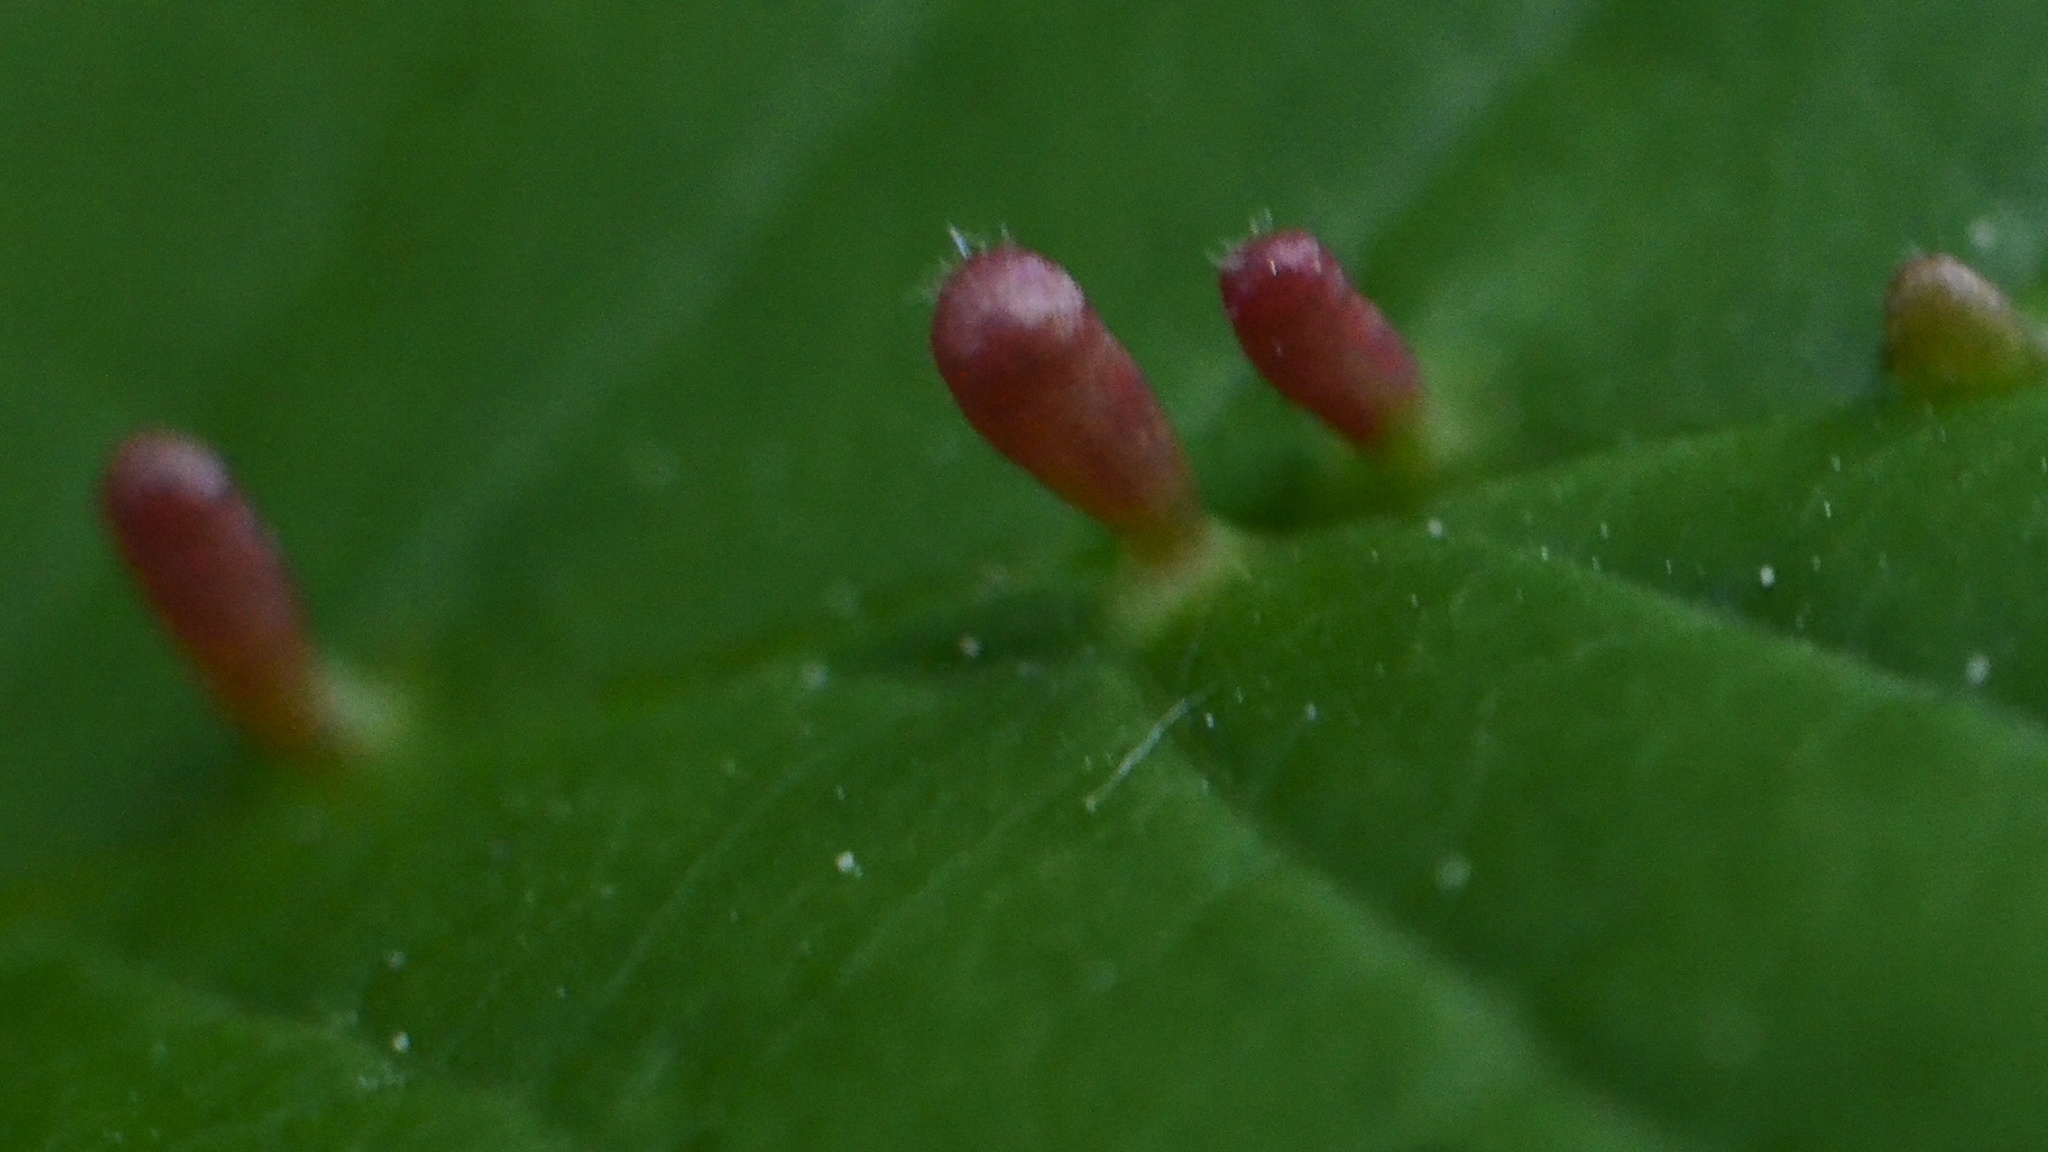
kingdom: Animalia
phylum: Arthropoda
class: Arachnida
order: Trombidiformes
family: Eriophyidae
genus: Eriophyes
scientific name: Eriophyes tiliae
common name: Red nail gall mite
